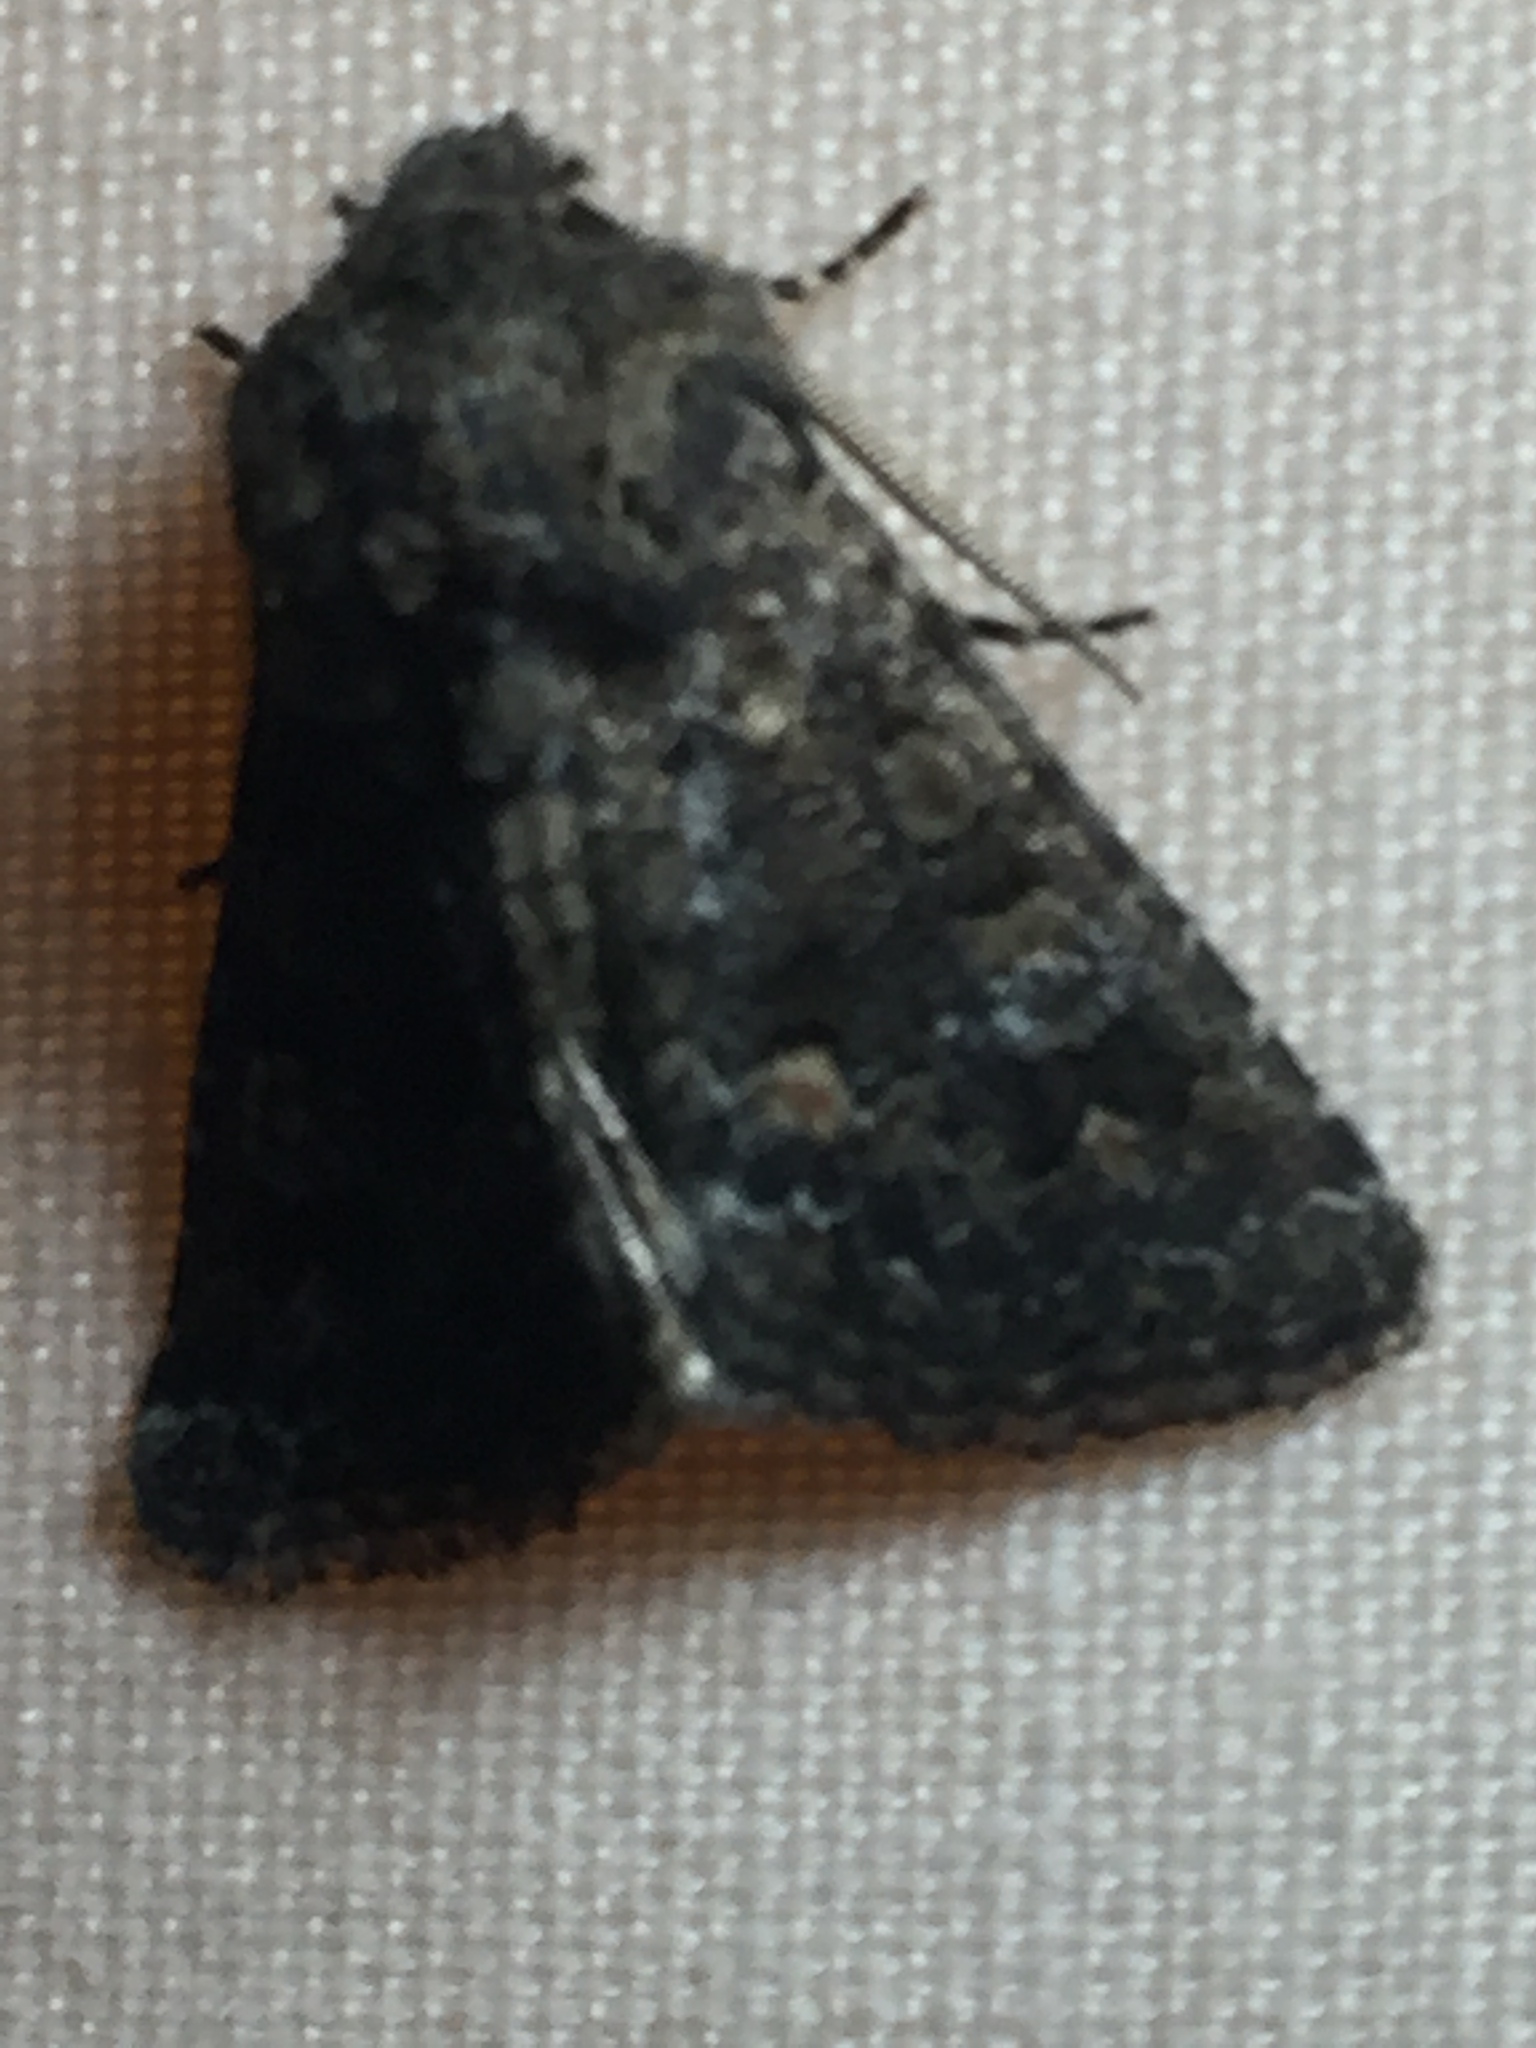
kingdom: Animalia
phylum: Arthropoda
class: Insecta
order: Lepidoptera
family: Noctuidae
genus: Klugeana
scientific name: Klugeana philoxalis
